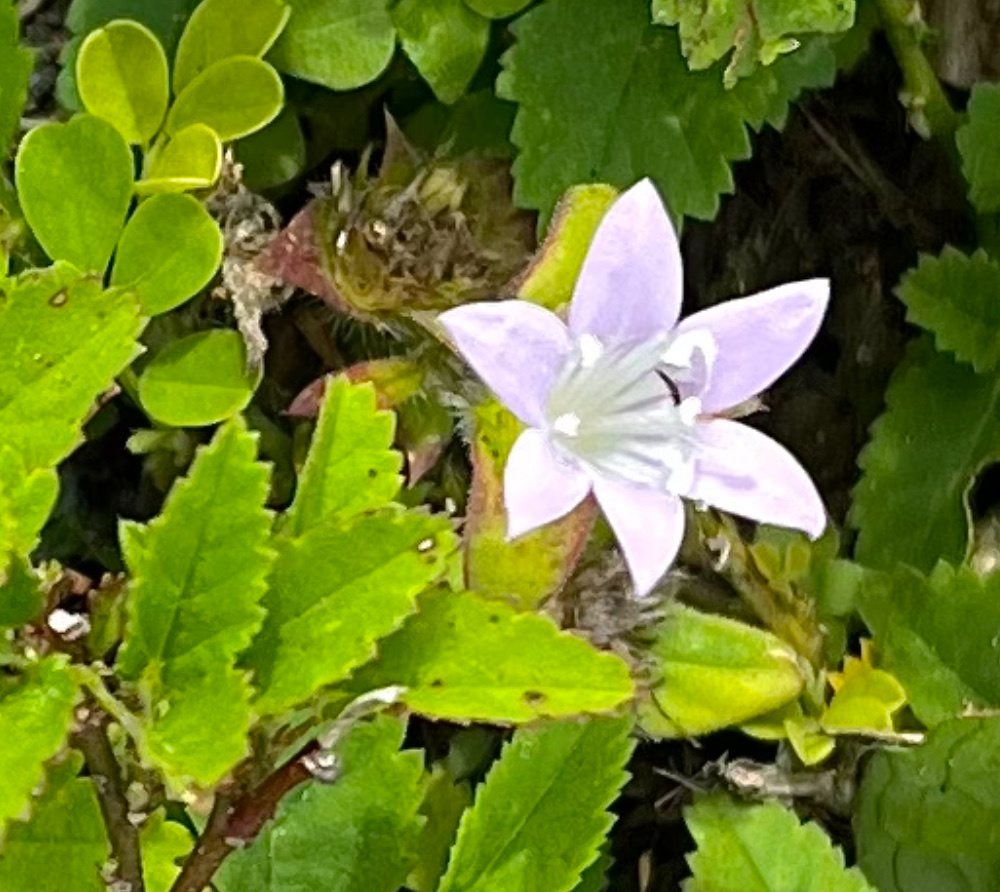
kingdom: Plantae
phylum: Tracheophyta
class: Magnoliopsida
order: Gentianales
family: Rubiaceae
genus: Richardia
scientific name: Richardia grandiflora
